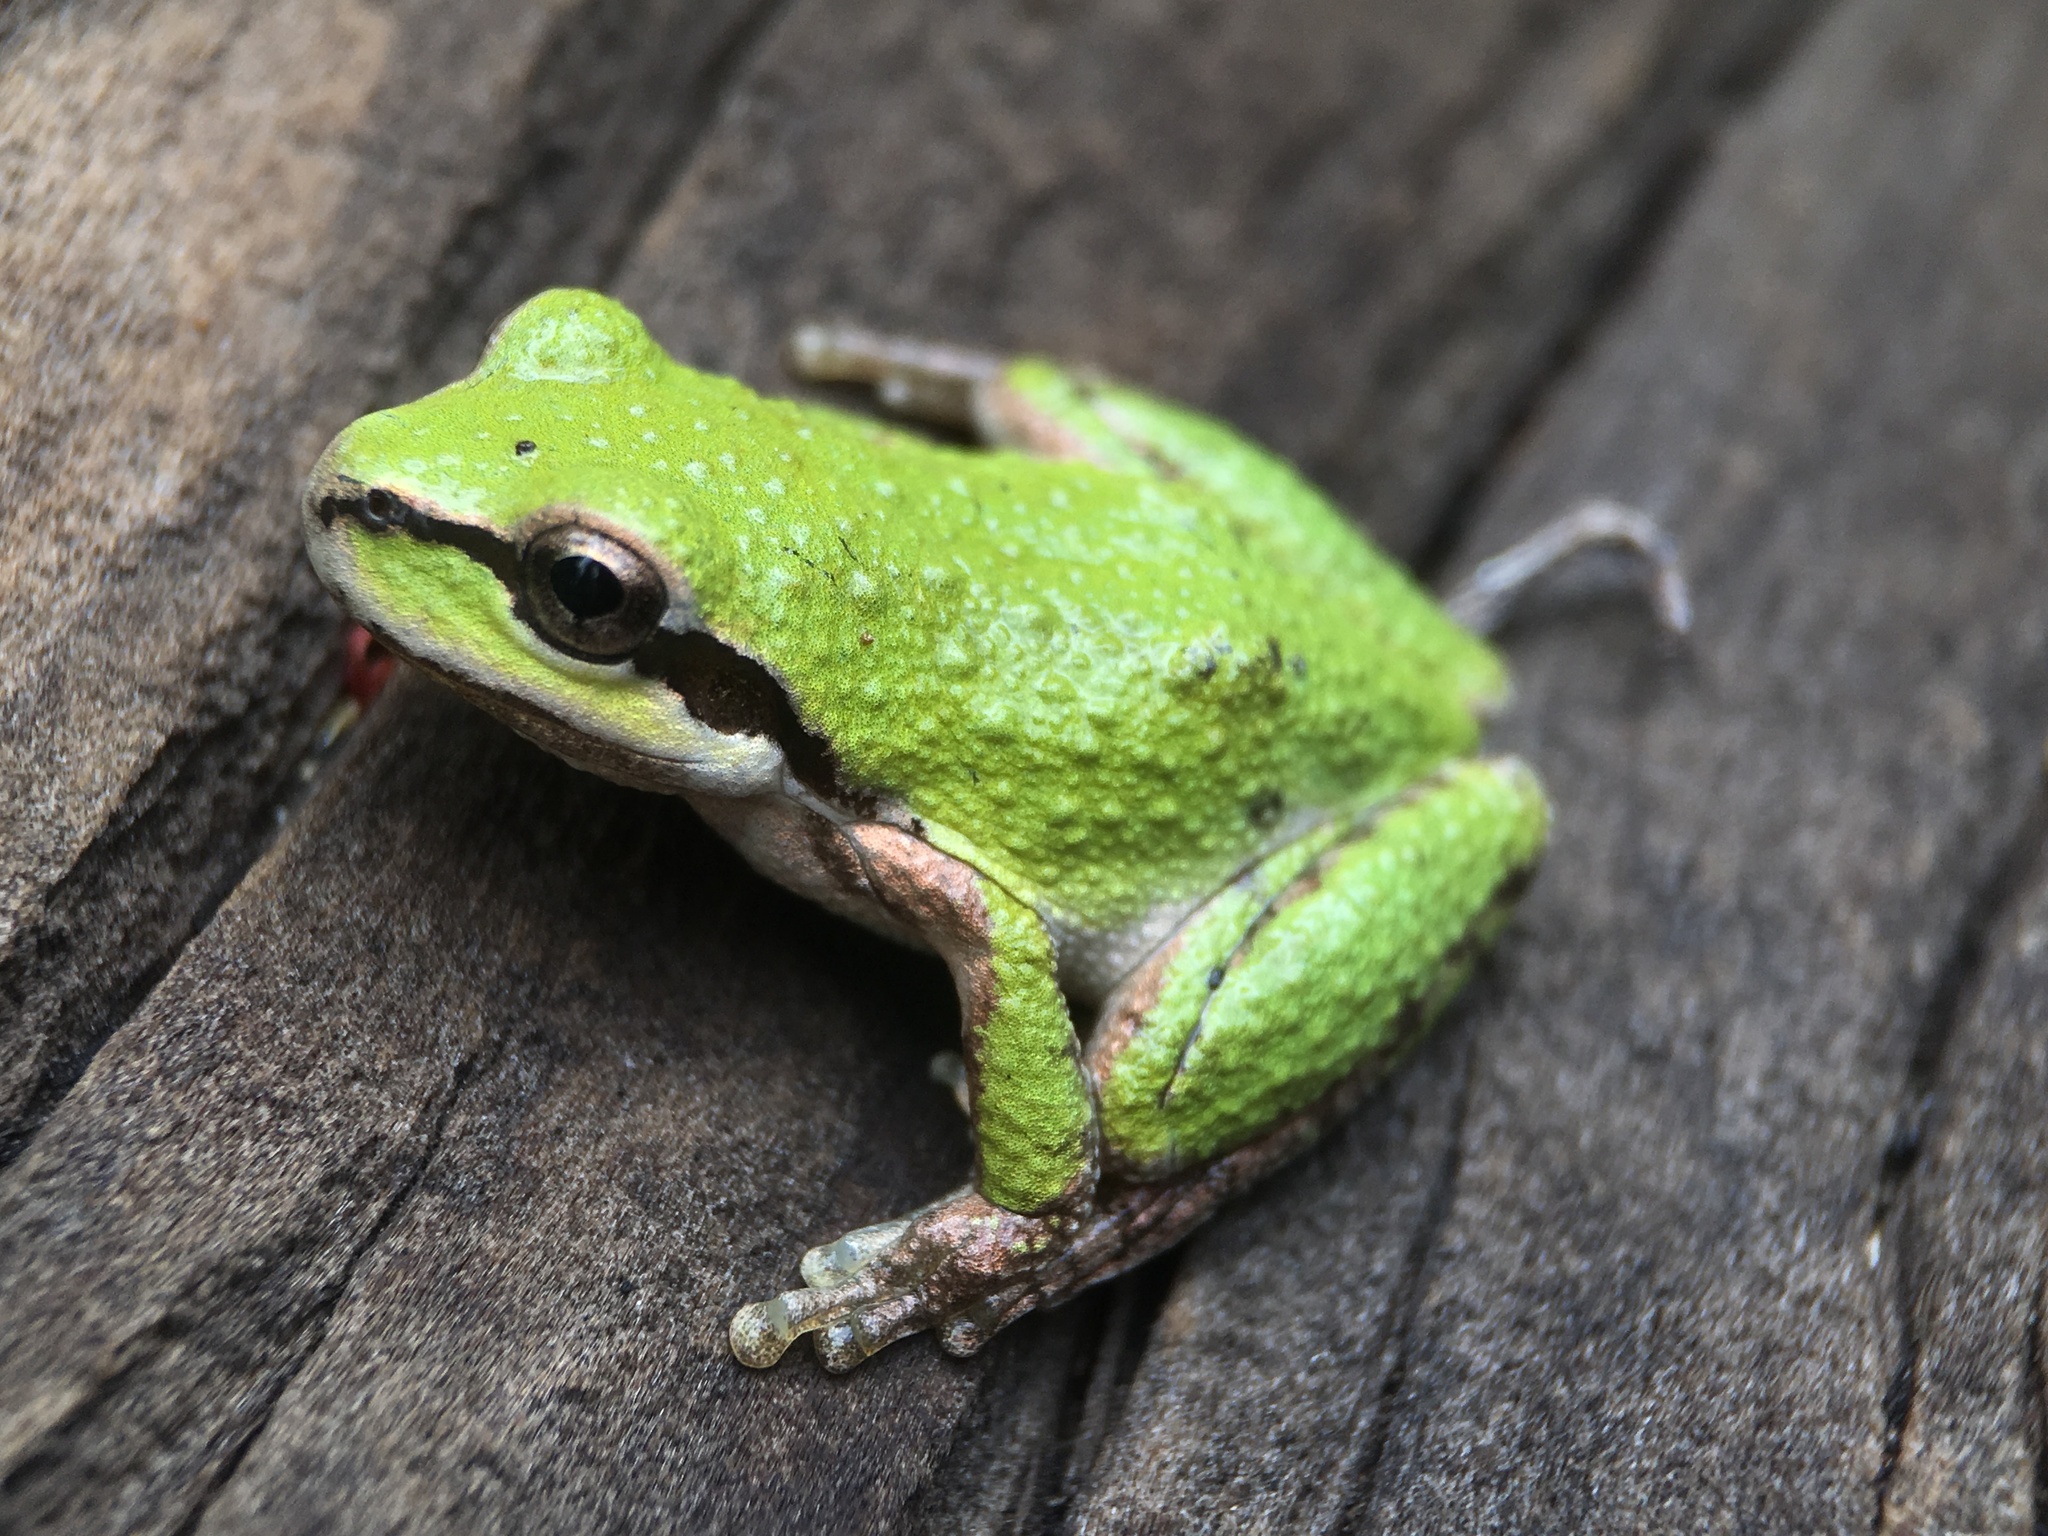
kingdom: Animalia
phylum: Chordata
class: Amphibia
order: Anura
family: Hylidae
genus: Pseudacris
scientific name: Pseudacris regilla
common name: Pacific chorus frog
